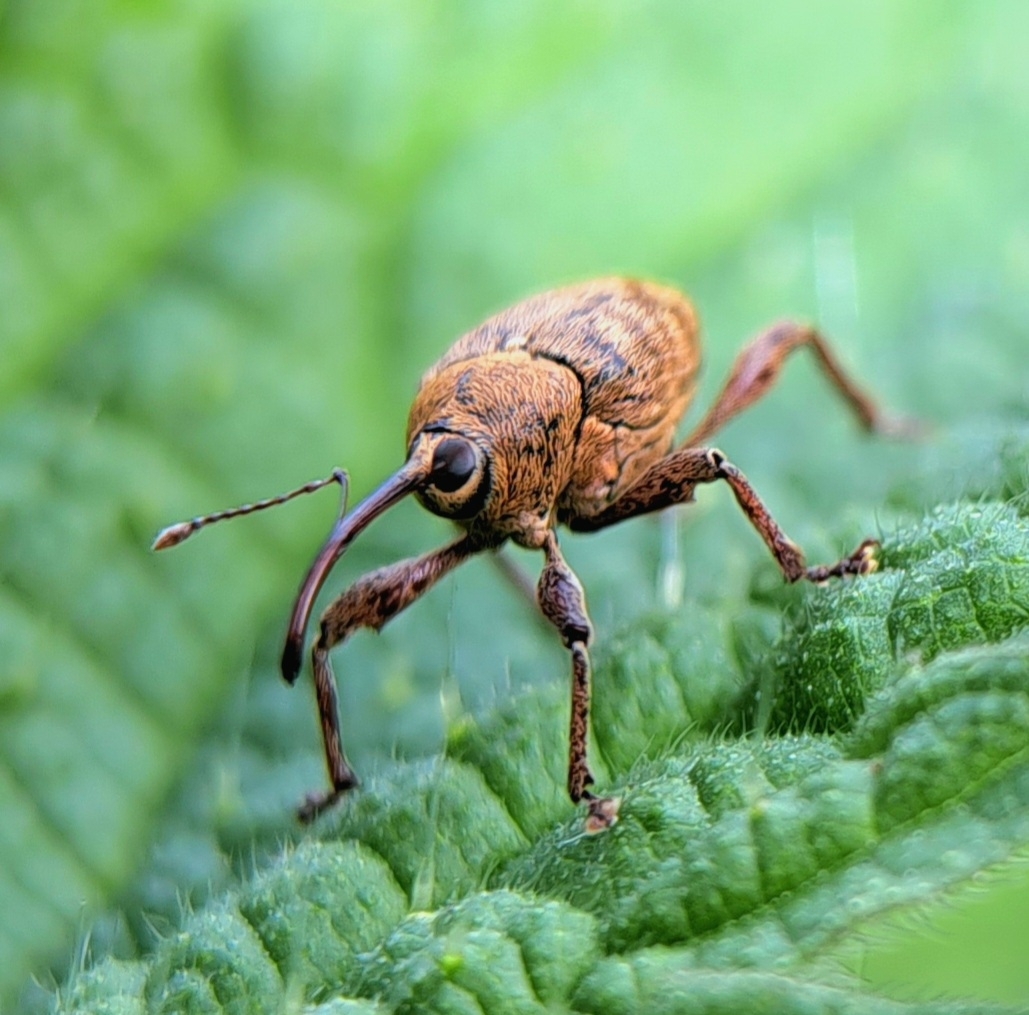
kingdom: Animalia
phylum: Arthropoda
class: Insecta
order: Coleoptera
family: Curculionidae
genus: Curculio
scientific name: Curculio glandium
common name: Acorn weevil
